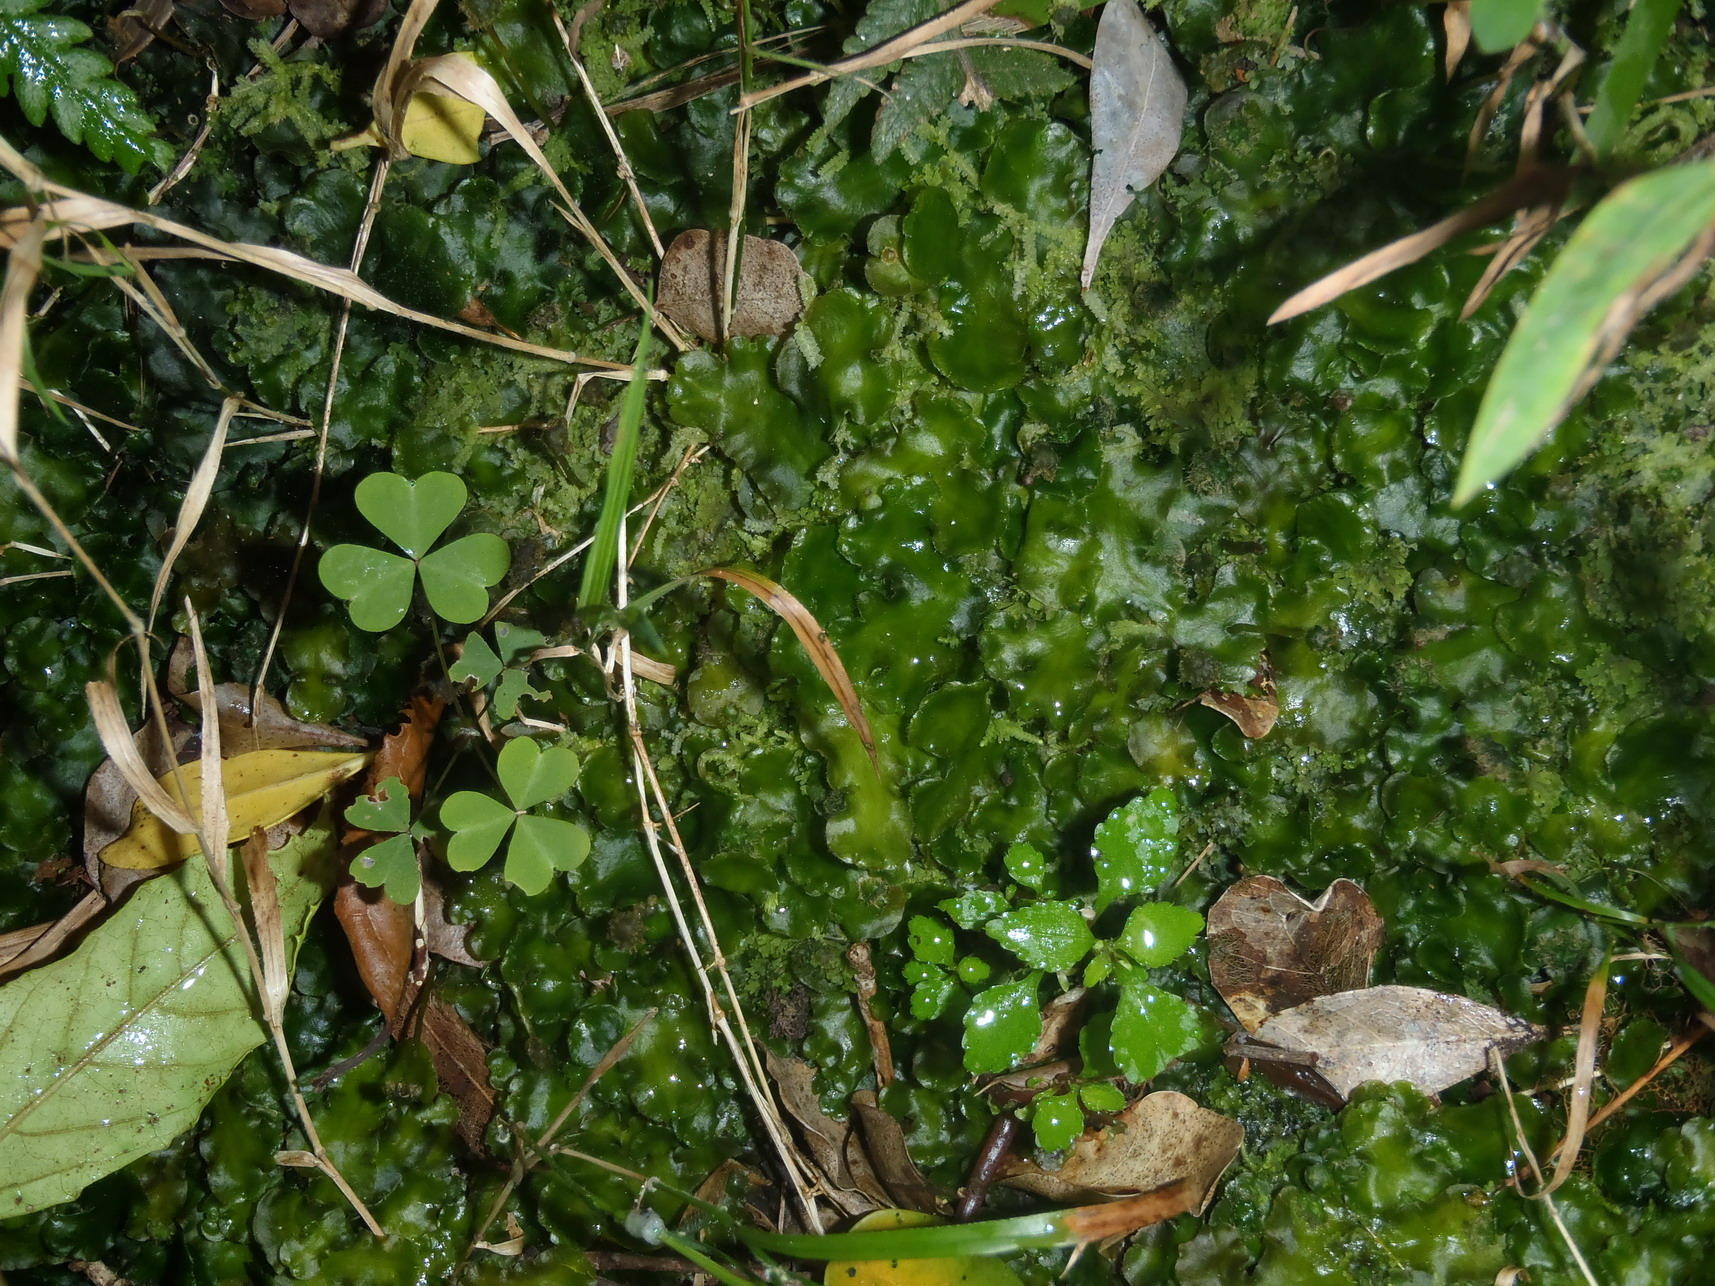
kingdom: Plantae
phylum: Marchantiophyta
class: Marchantiopsida
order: Marchantiales
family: Dumortieraceae
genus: Dumortiera
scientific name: Dumortiera hirsuta
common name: Dumortier's liverwort
